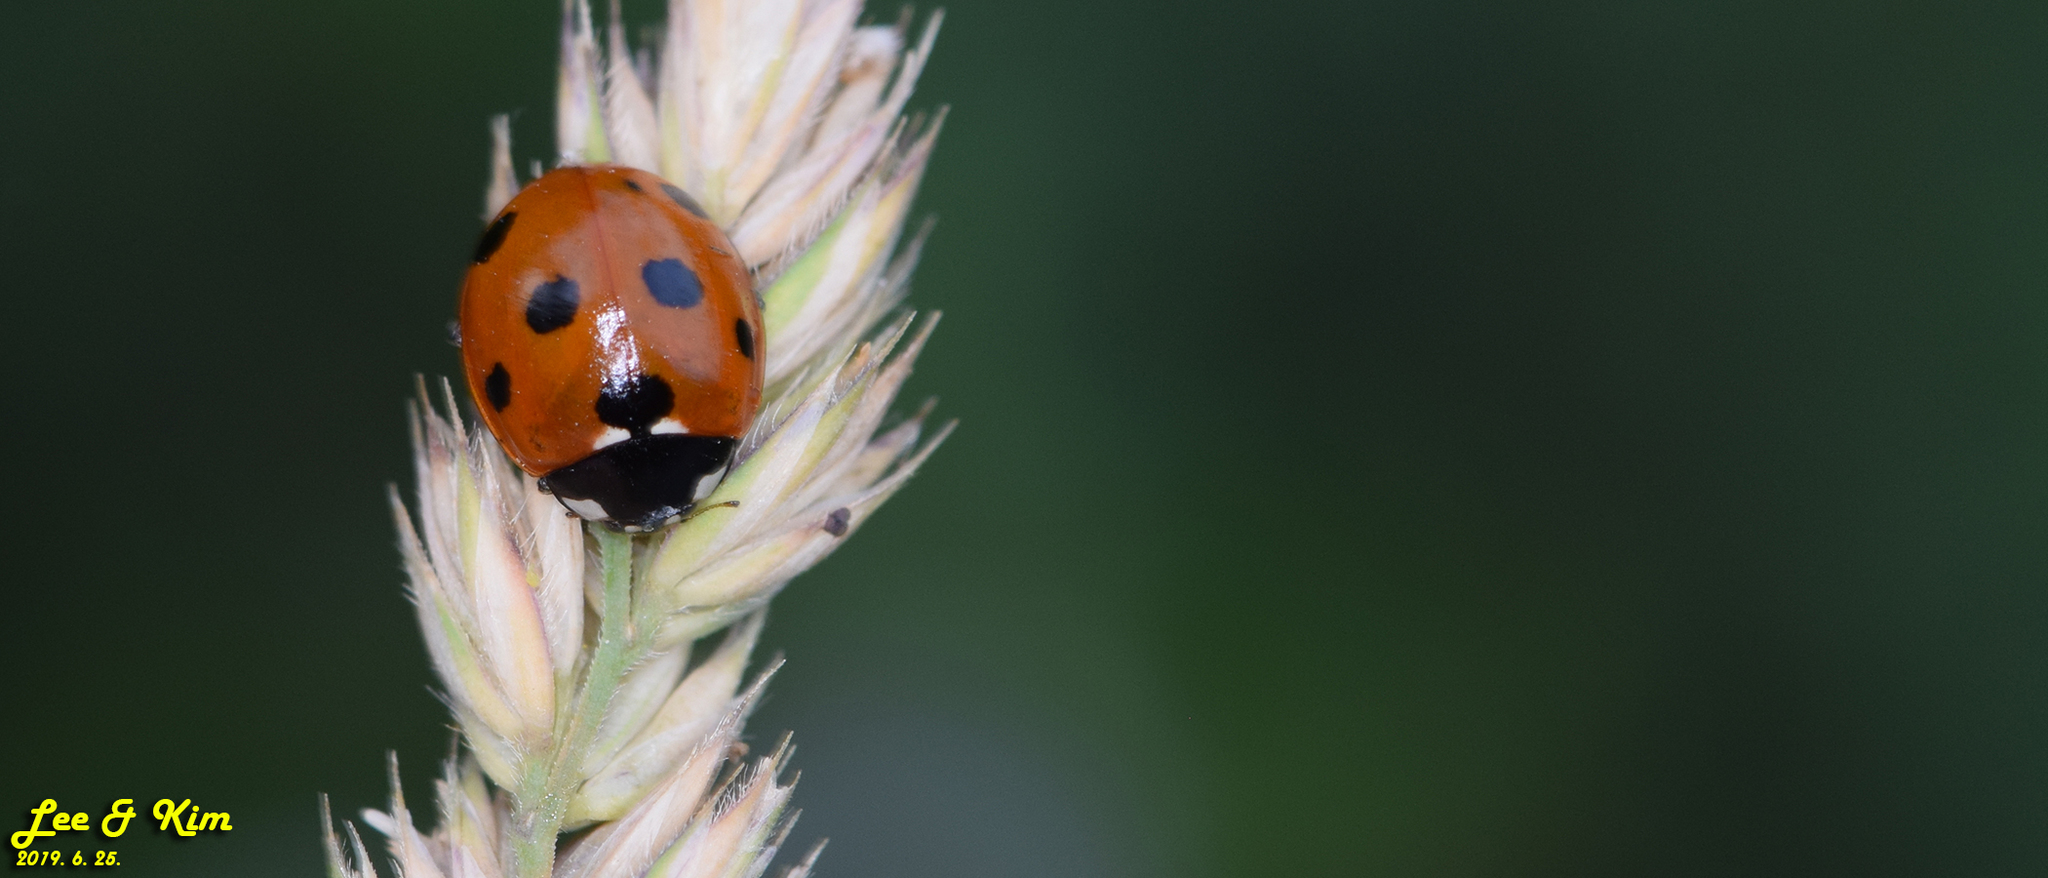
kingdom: Animalia
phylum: Arthropoda
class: Insecta
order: Coleoptera
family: Coccinellidae
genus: Coccinella
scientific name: Coccinella septempunctata
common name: Sevenspotted lady beetle
